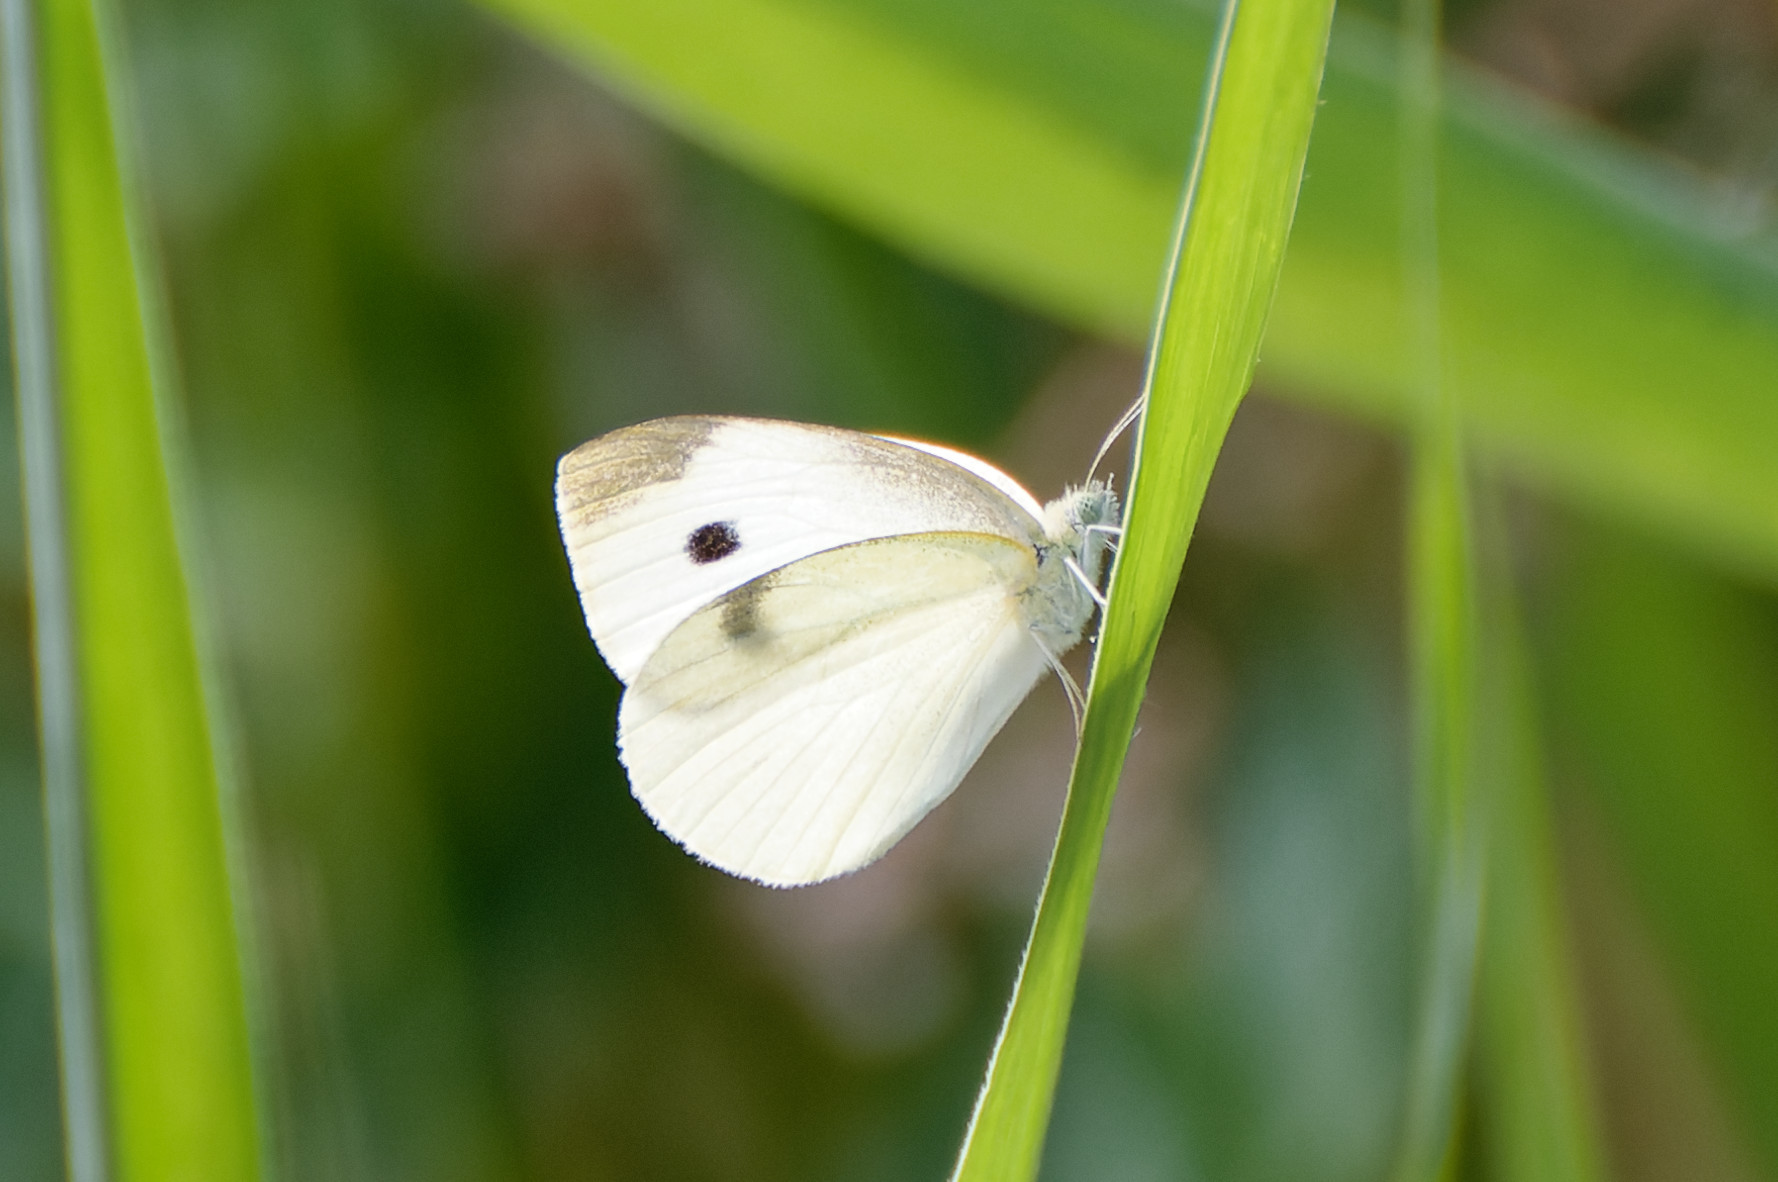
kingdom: Animalia
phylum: Arthropoda
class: Insecta
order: Lepidoptera
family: Pieridae
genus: Pieris
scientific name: Pieris rapae
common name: Small white
